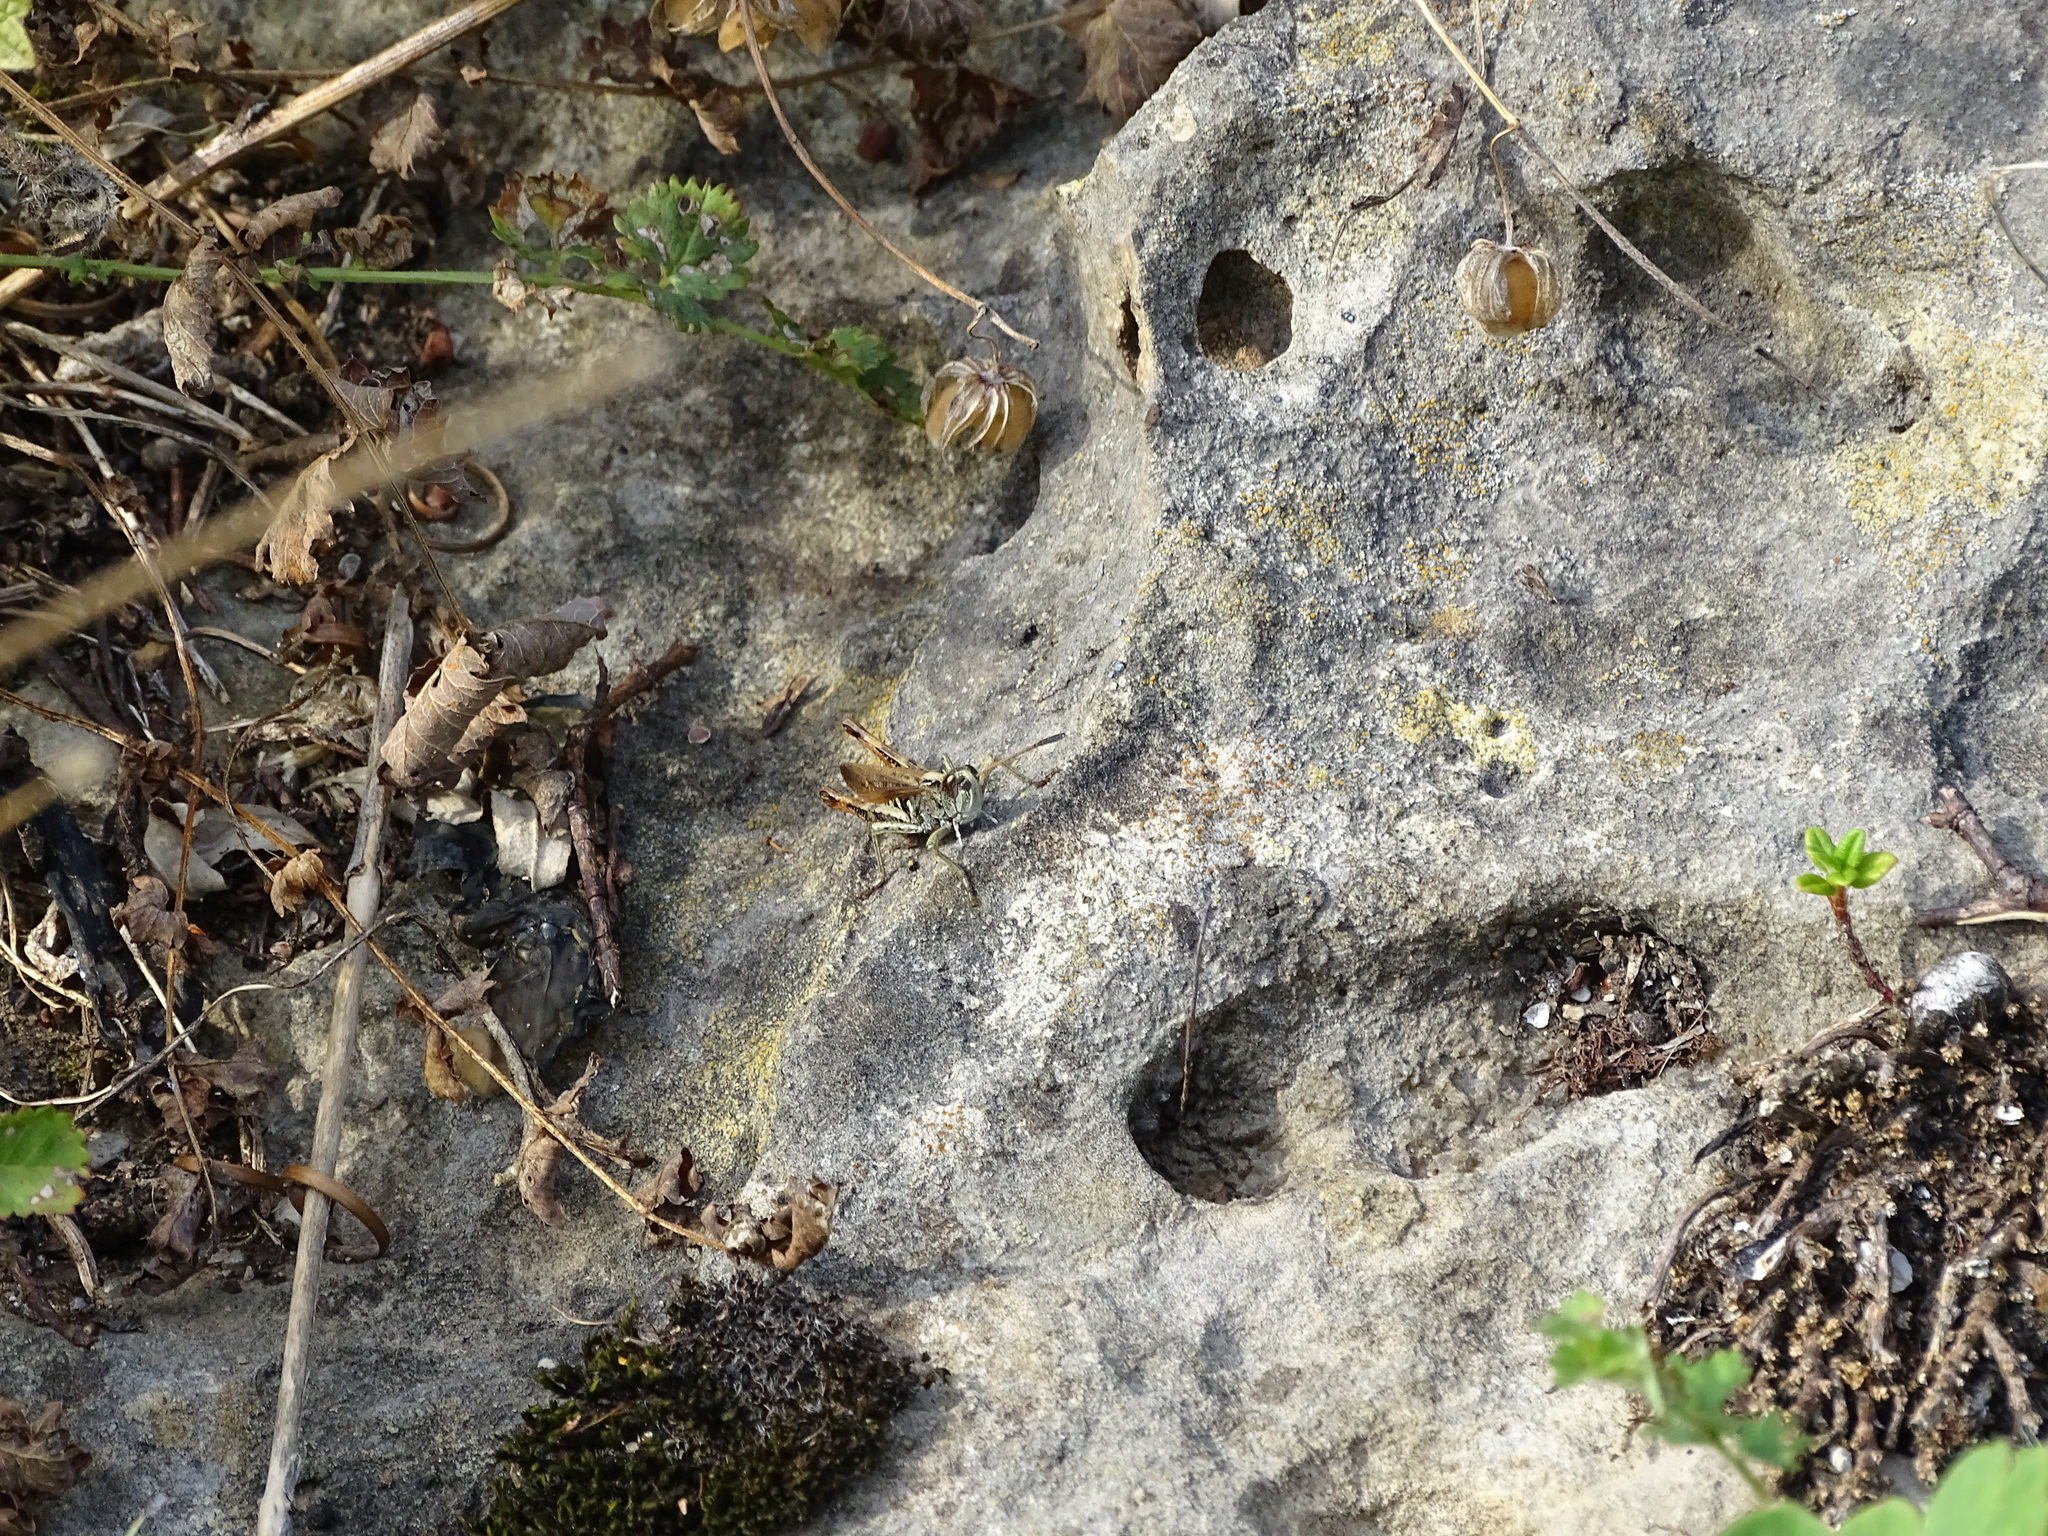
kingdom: Animalia
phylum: Arthropoda
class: Insecta
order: Orthoptera
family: Acrididae
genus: Gomphocerippus
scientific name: Gomphocerippus rufus
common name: Rufous grasshopper
